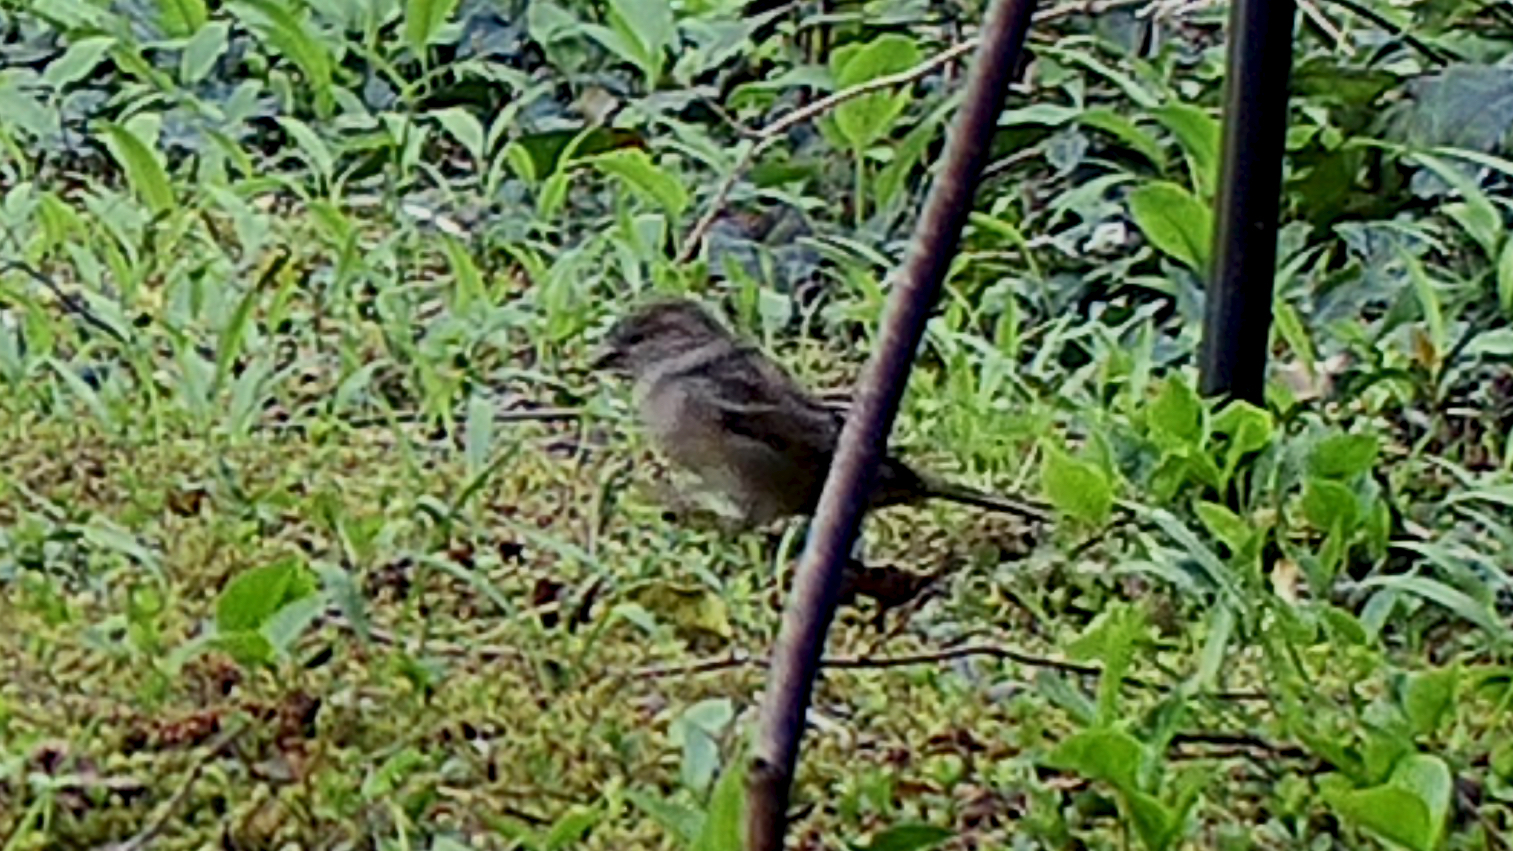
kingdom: Animalia
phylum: Chordata
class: Aves
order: Passeriformes
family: Passeridae
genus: Passer
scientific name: Passer domesticus
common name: House sparrow
